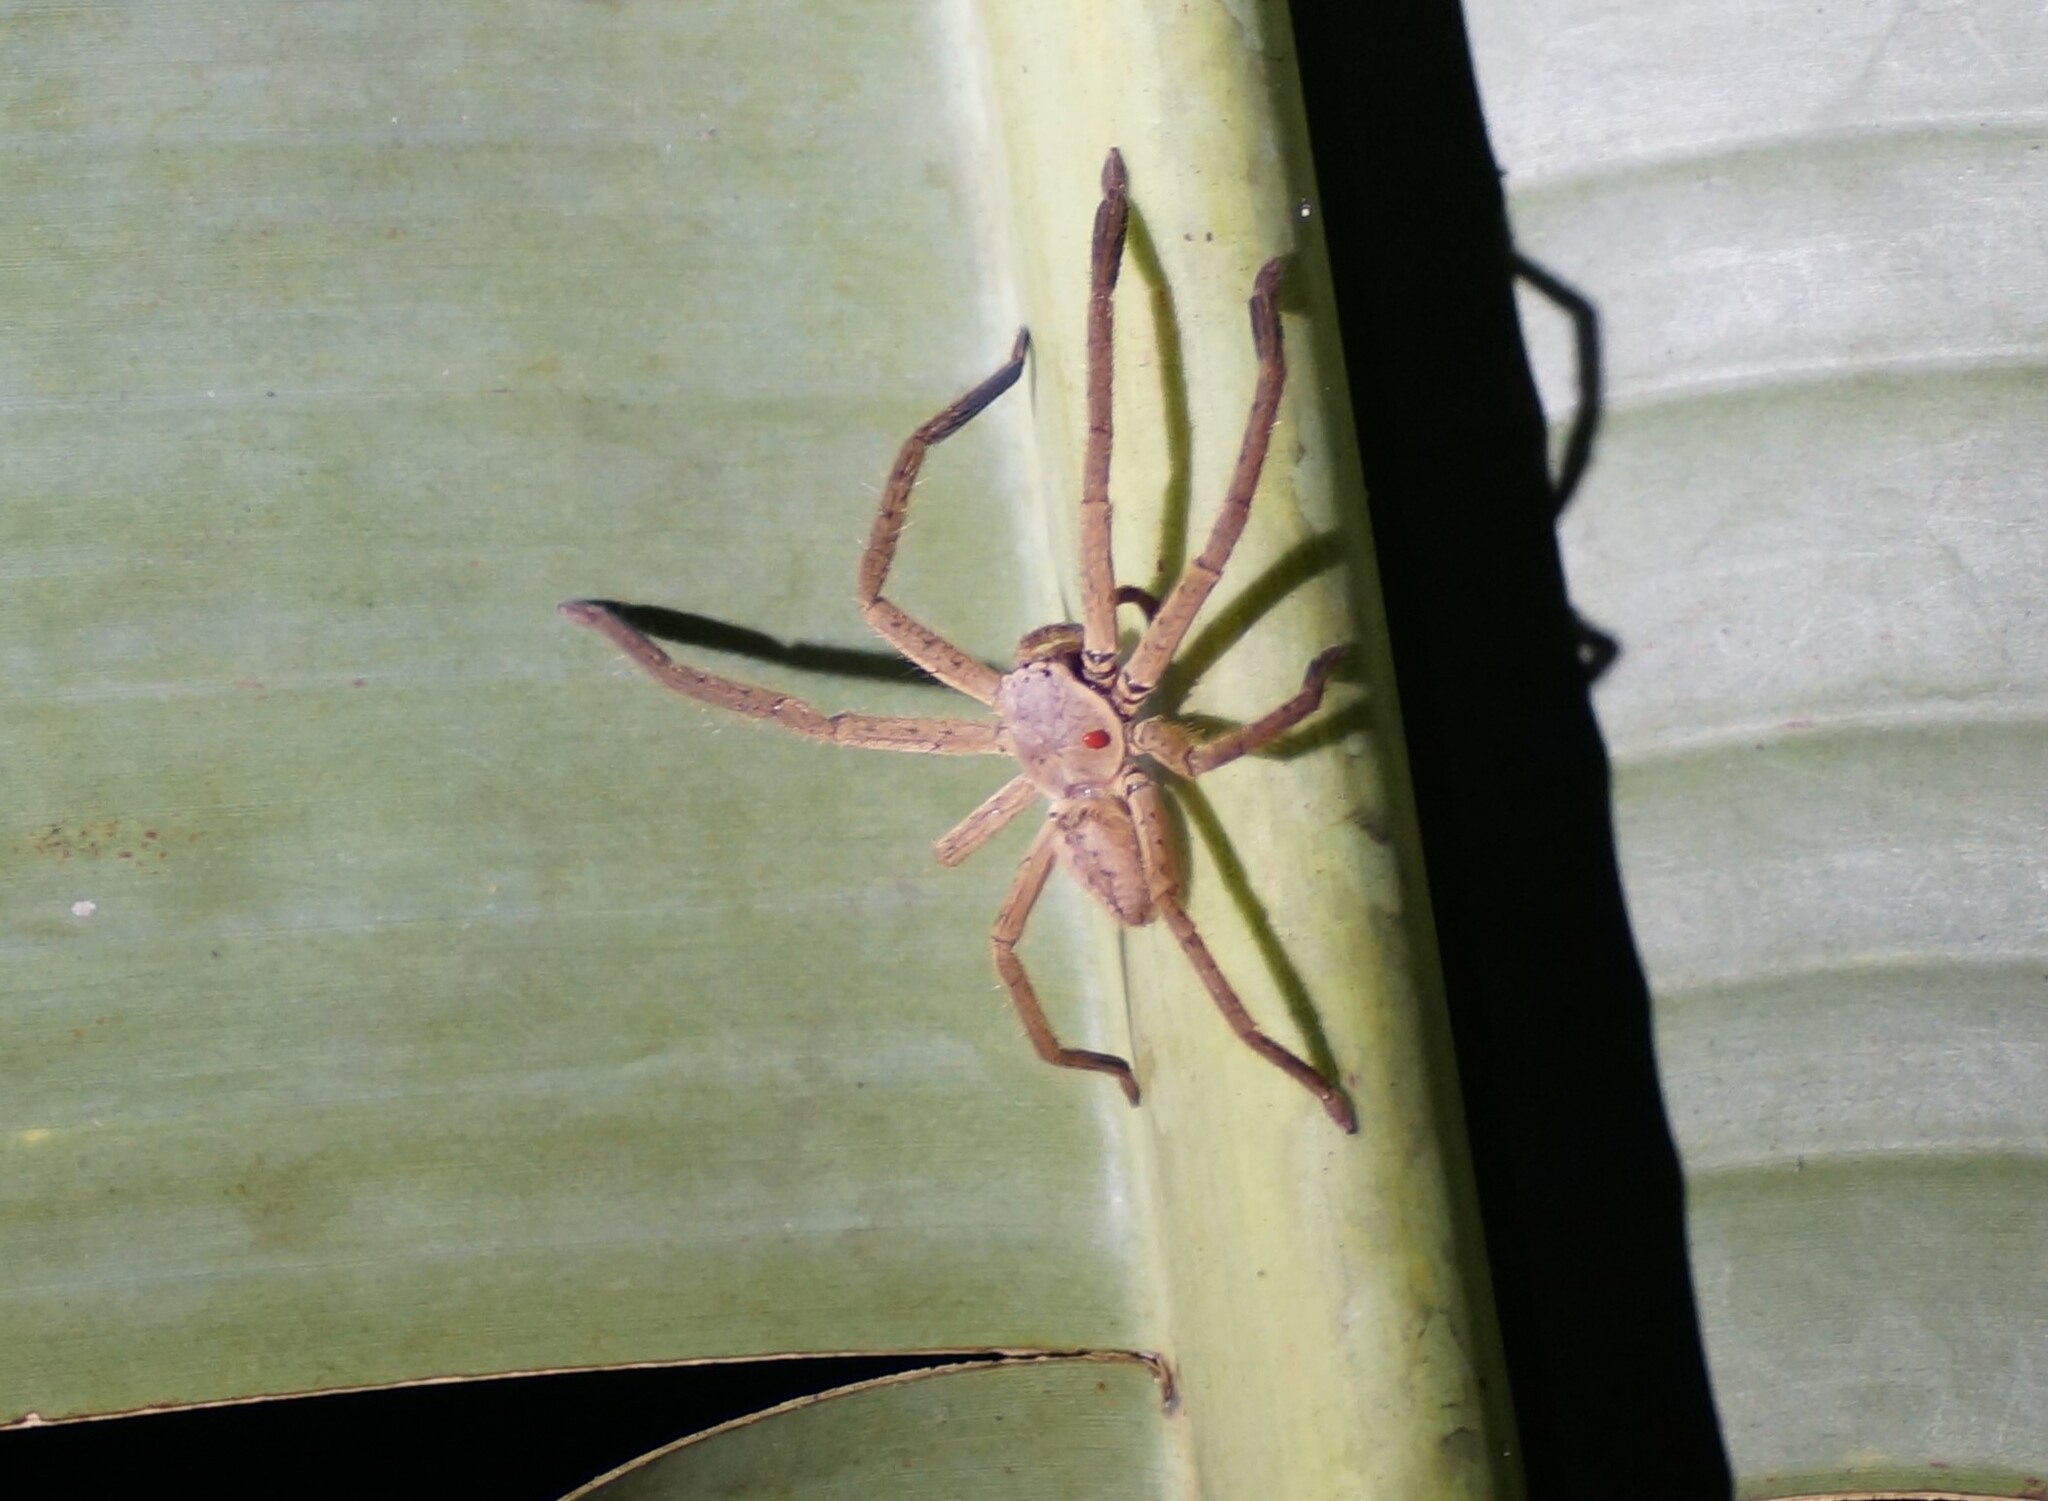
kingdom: Animalia
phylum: Arthropoda
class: Arachnida
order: Araneae
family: Sparassidae
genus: Beregama
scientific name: Beregama cordata
